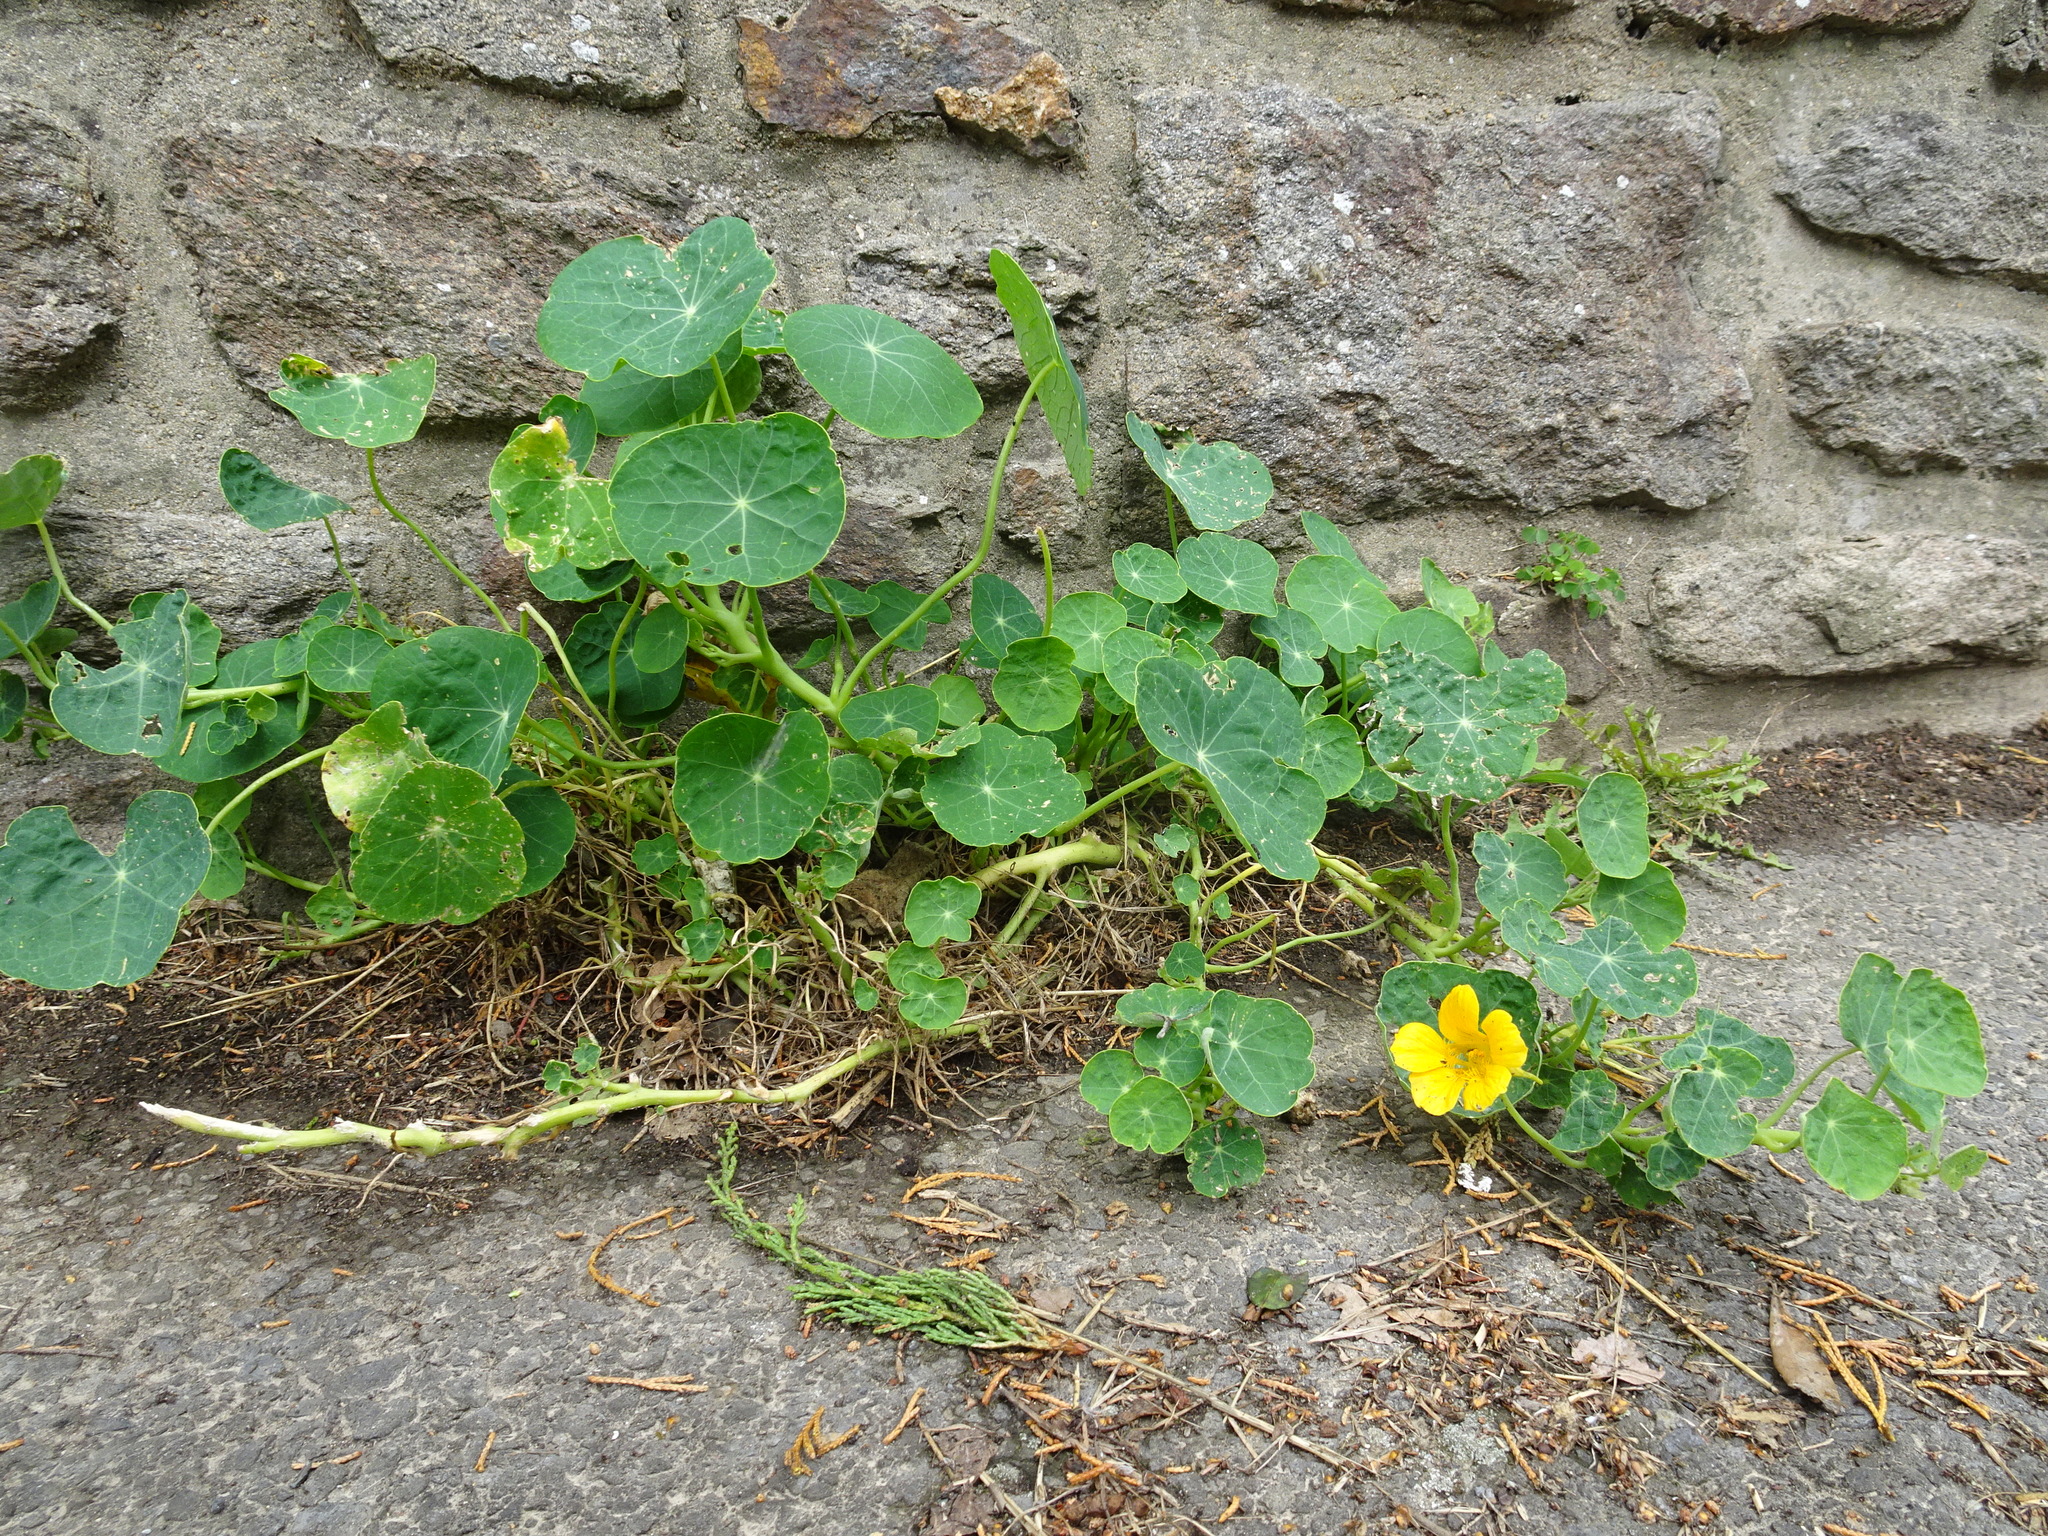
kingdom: Plantae
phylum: Tracheophyta
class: Magnoliopsida
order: Brassicales
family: Tropaeolaceae
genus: Tropaeolum
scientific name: Tropaeolum majus
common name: Nasturtium
